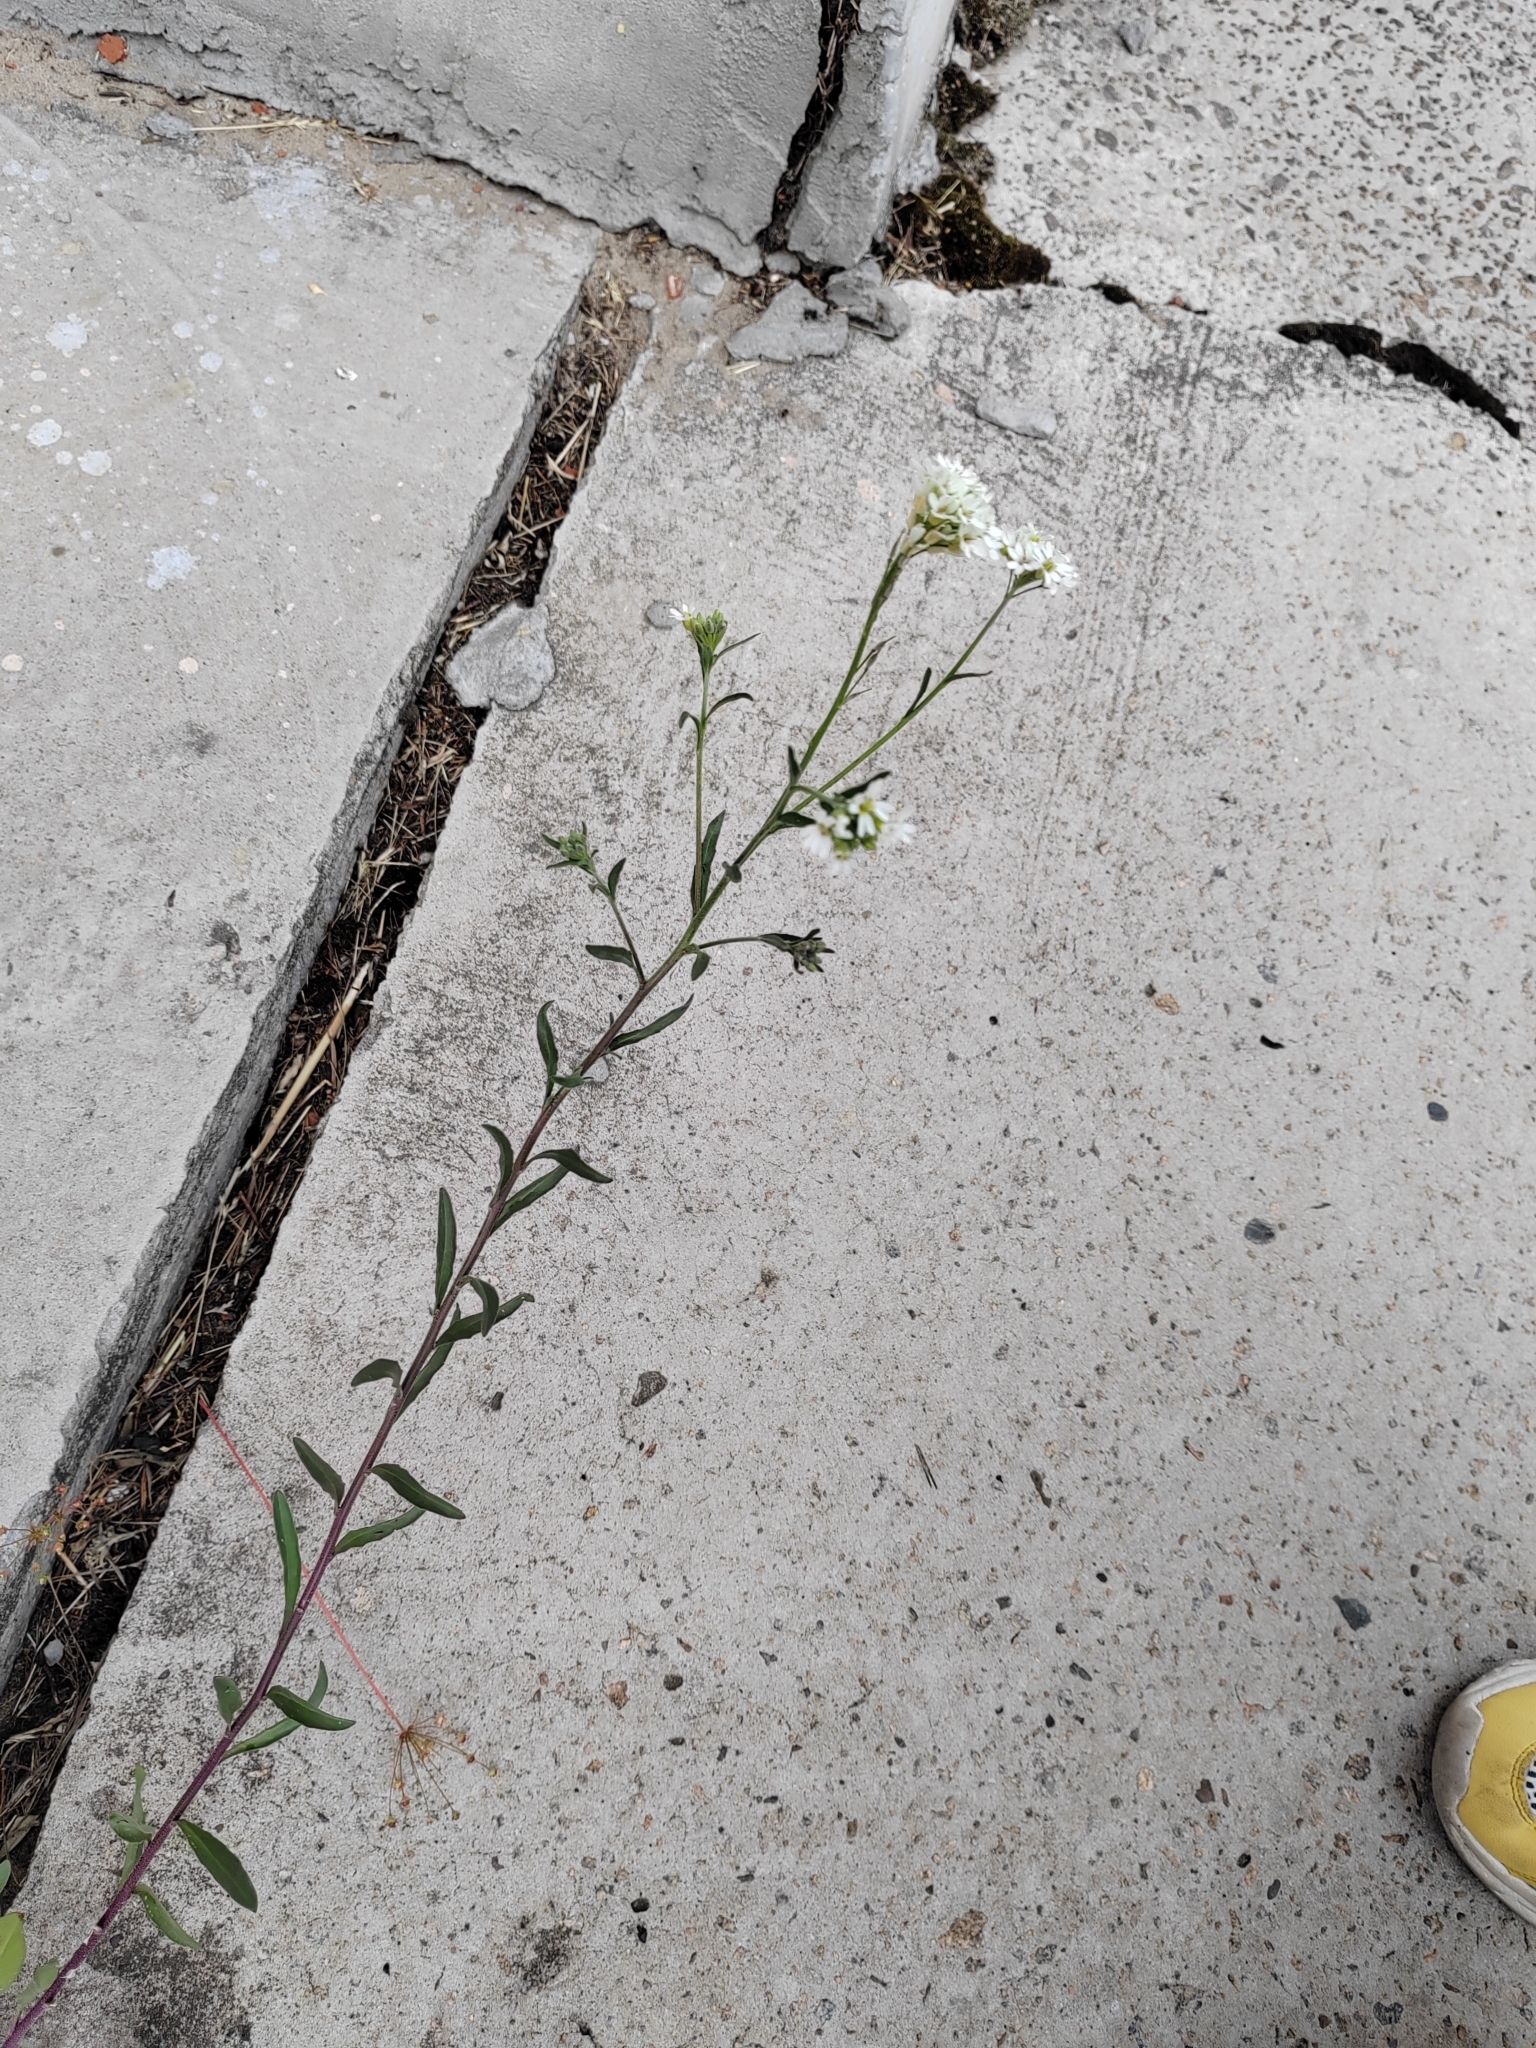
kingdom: Plantae
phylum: Tracheophyta
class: Magnoliopsida
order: Brassicales
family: Brassicaceae
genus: Berteroa
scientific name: Berteroa incana
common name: Hoary alison
